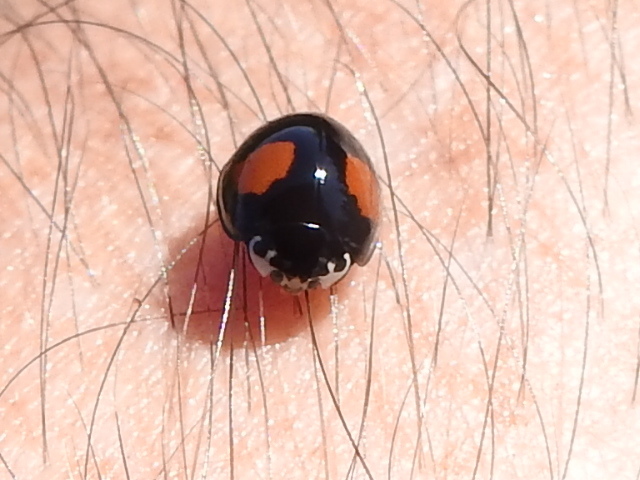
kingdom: Animalia
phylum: Arthropoda
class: Insecta
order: Coleoptera
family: Coccinellidae
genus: Olla
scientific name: Olla v-nigrum
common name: Ashy gray lady beetle
